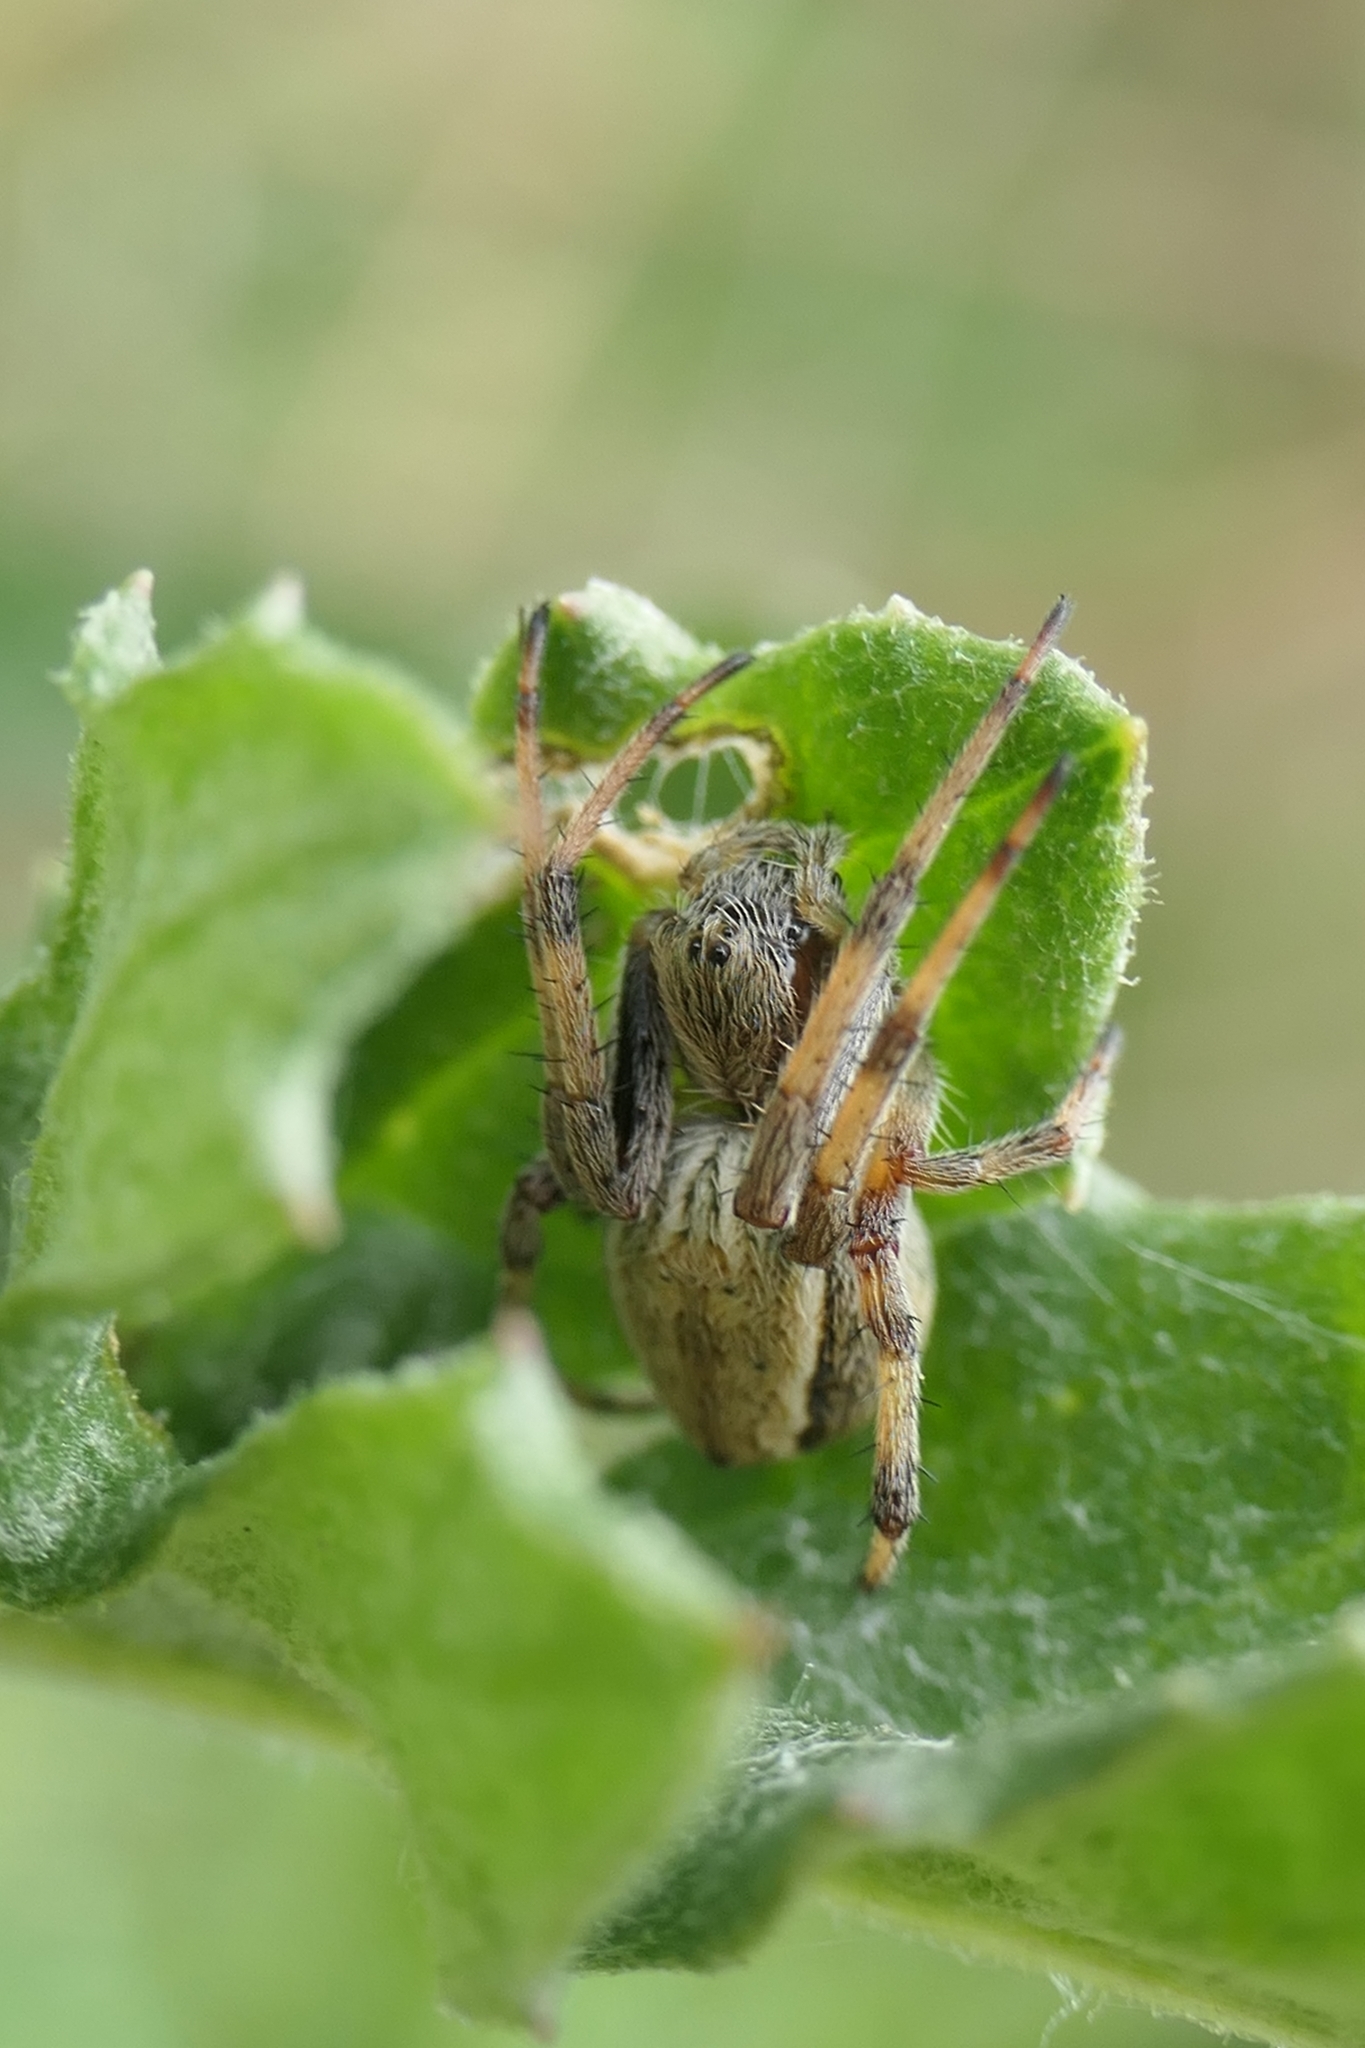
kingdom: Animalia
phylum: Arthropoda
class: Arachnida
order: Araneae
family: Araneidae
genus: Salsa
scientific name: Salsa fuliginata
